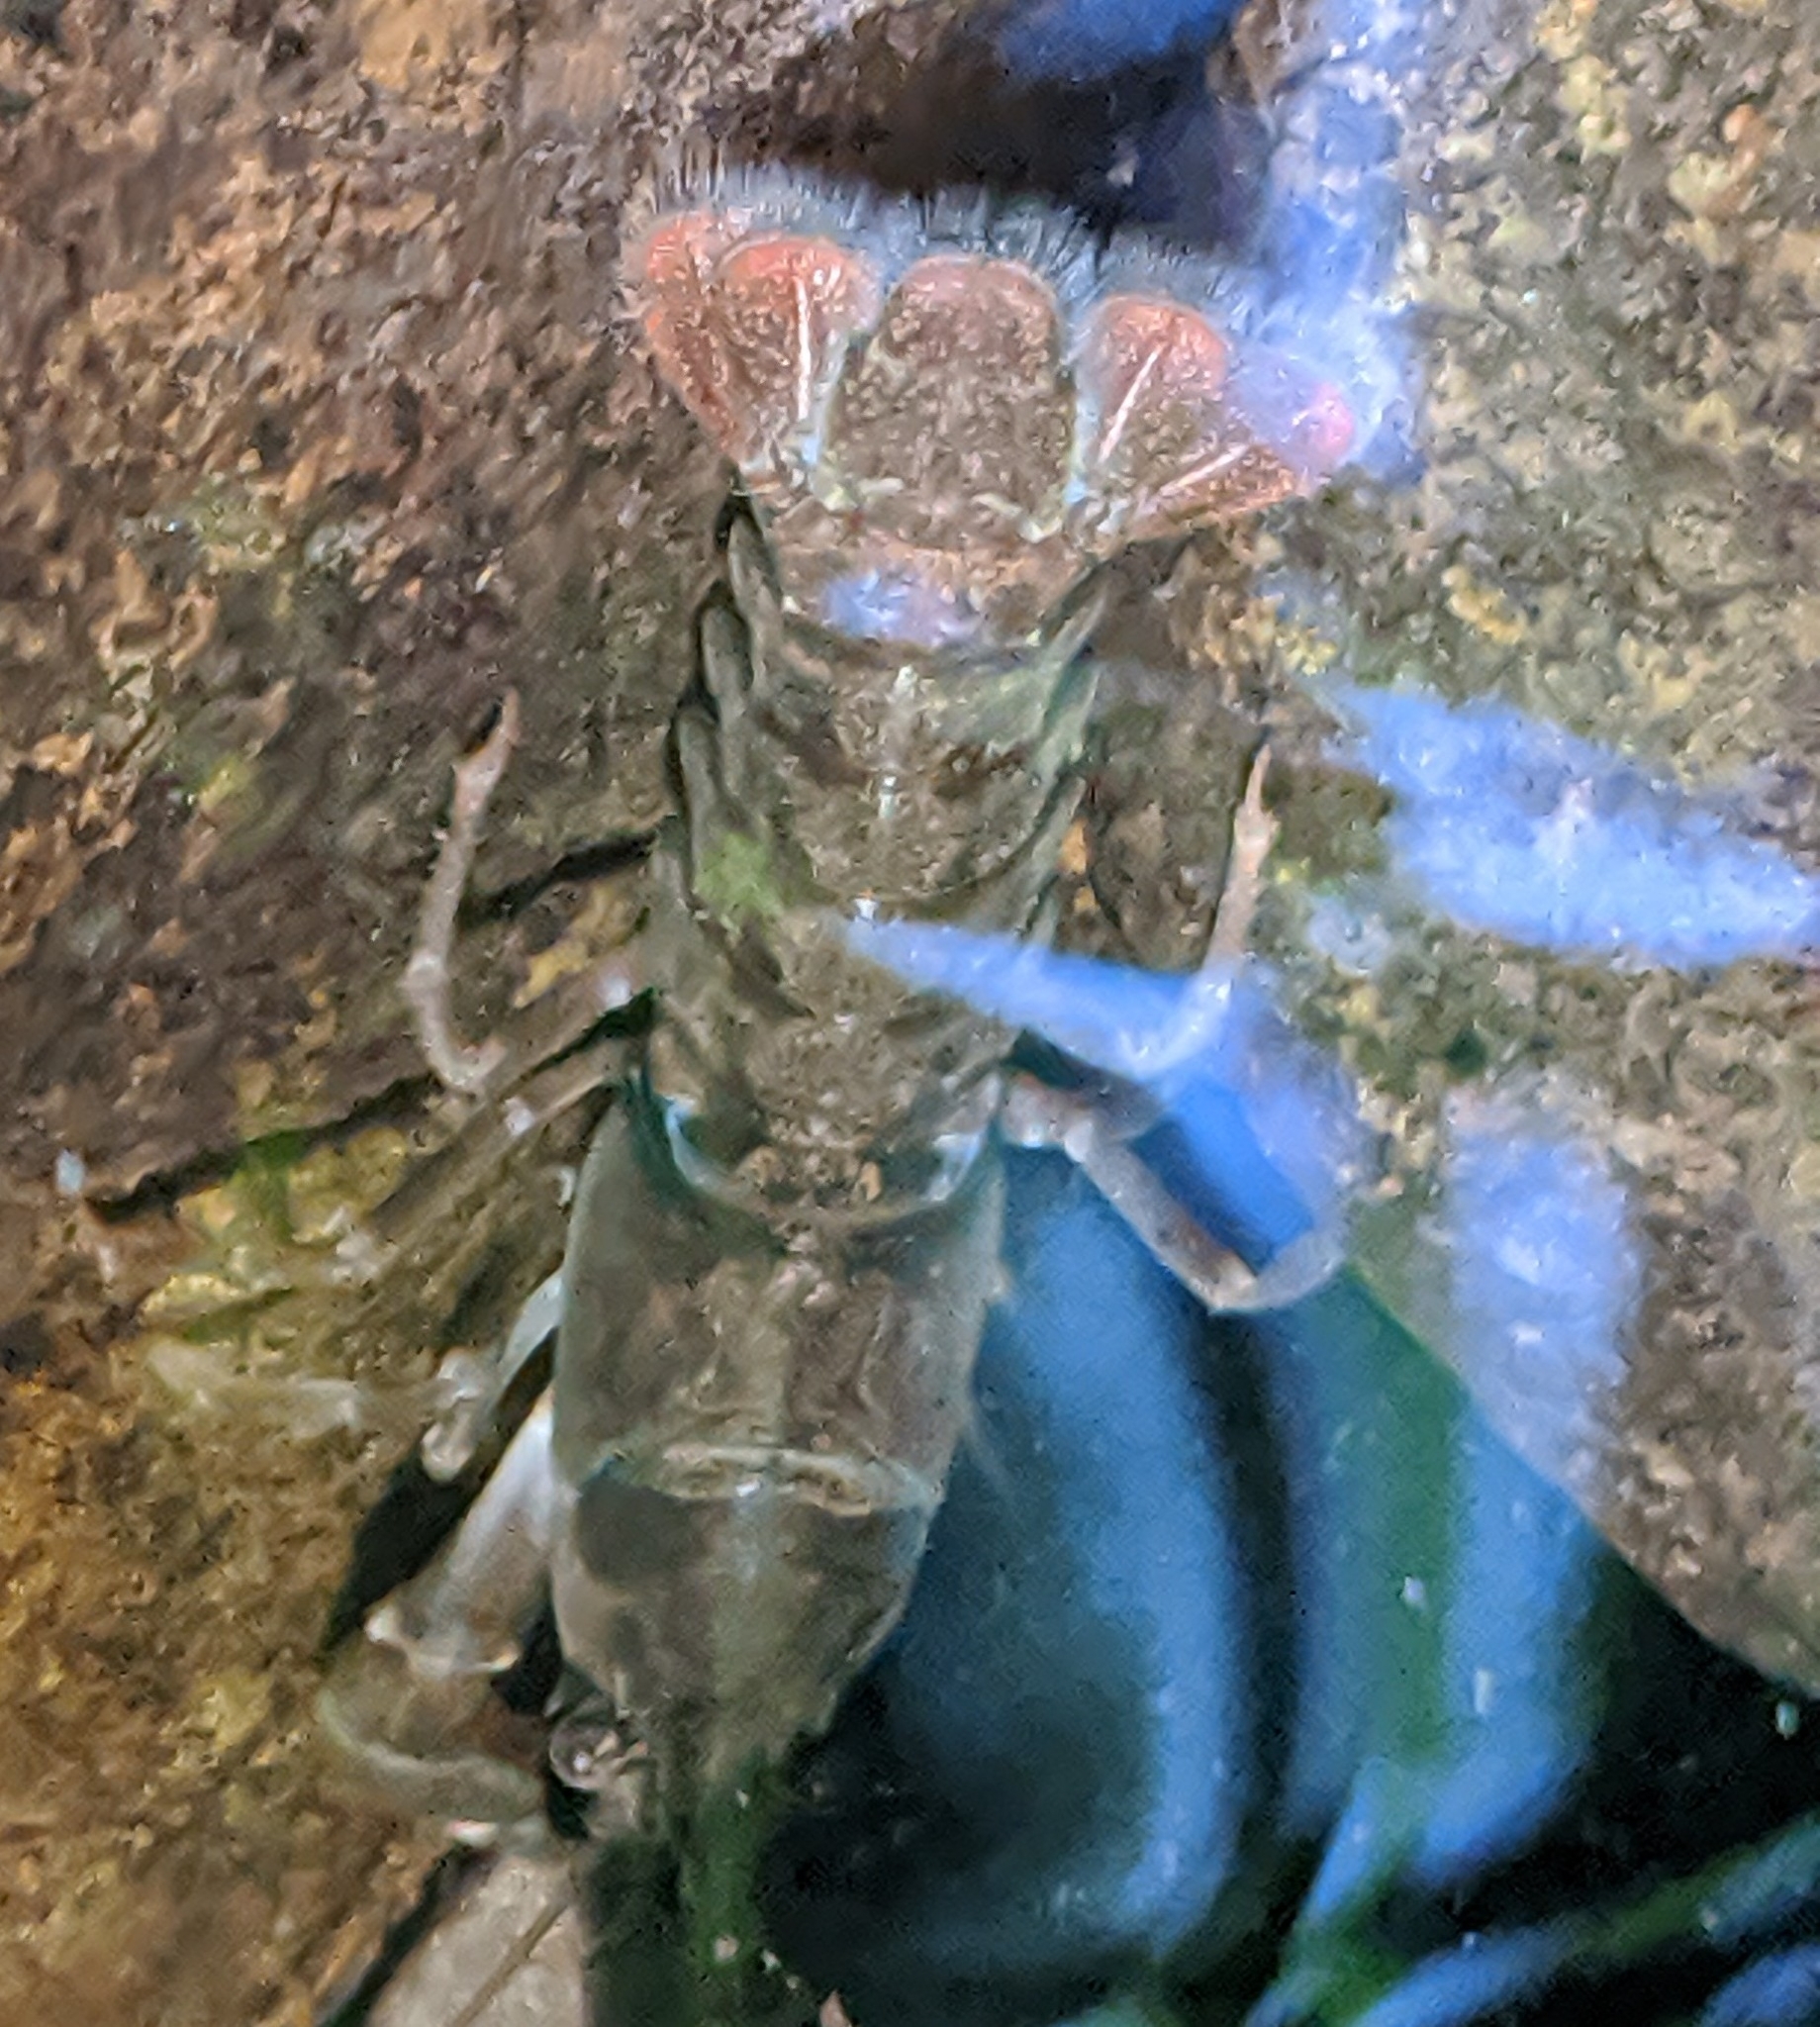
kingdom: Animalia
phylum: Arthropoda
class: Malacostraca
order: Decapoda
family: Astacidae
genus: Pacifastacus
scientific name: Pacifastacus leniusculus
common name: Signal crayfish
